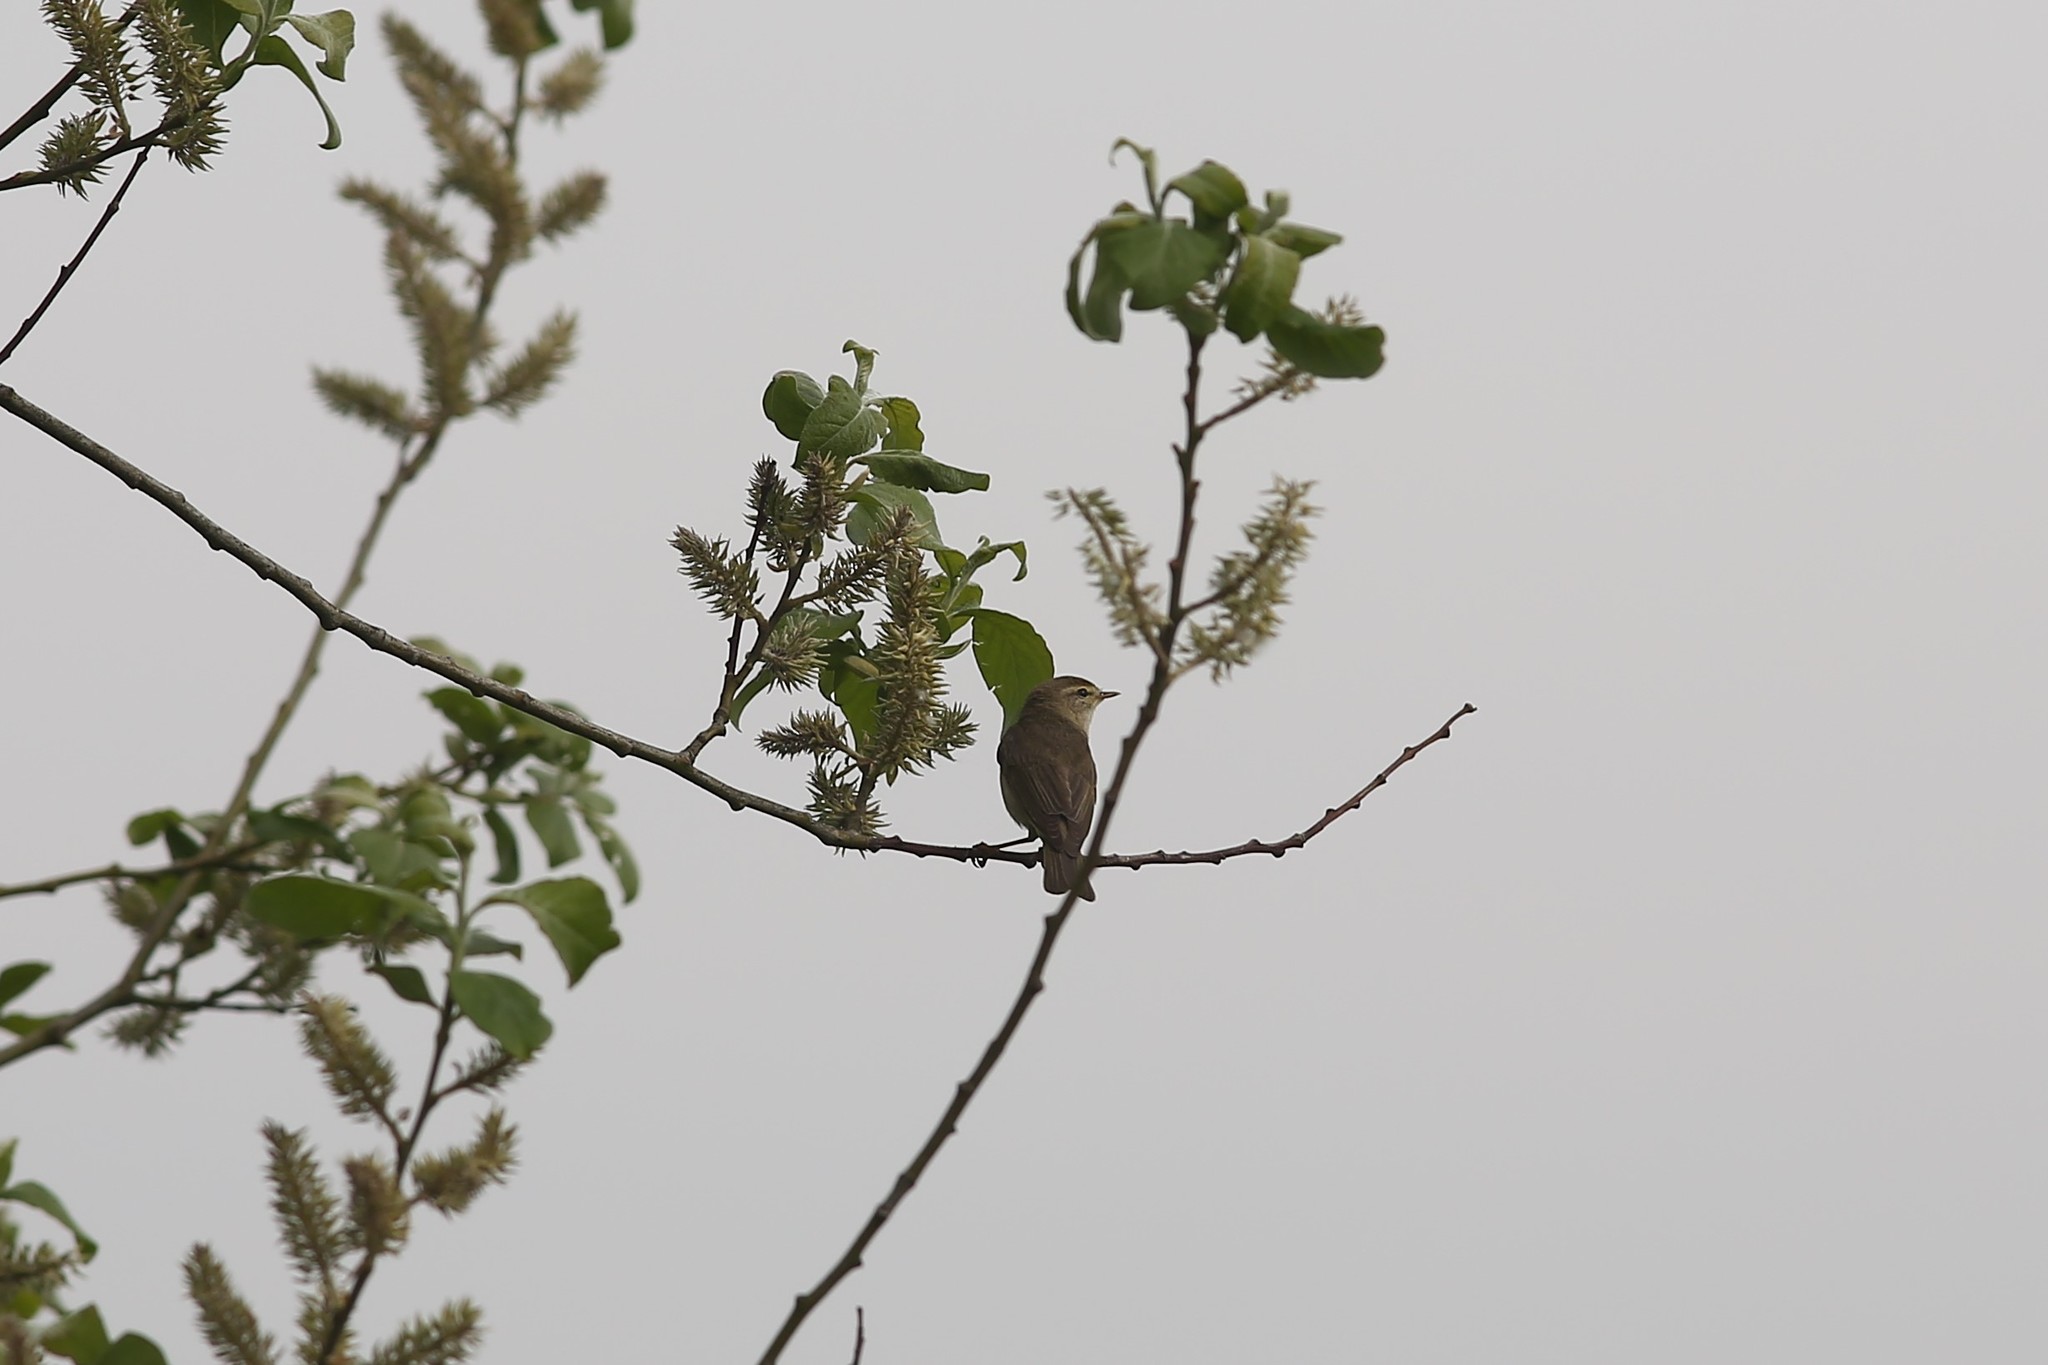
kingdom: Animalia
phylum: Chordata
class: Aves
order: Passeriformes
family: Phylloscopidae
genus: Phylloscopus
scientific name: Phylloscopus trochilus
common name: Willow warbler
